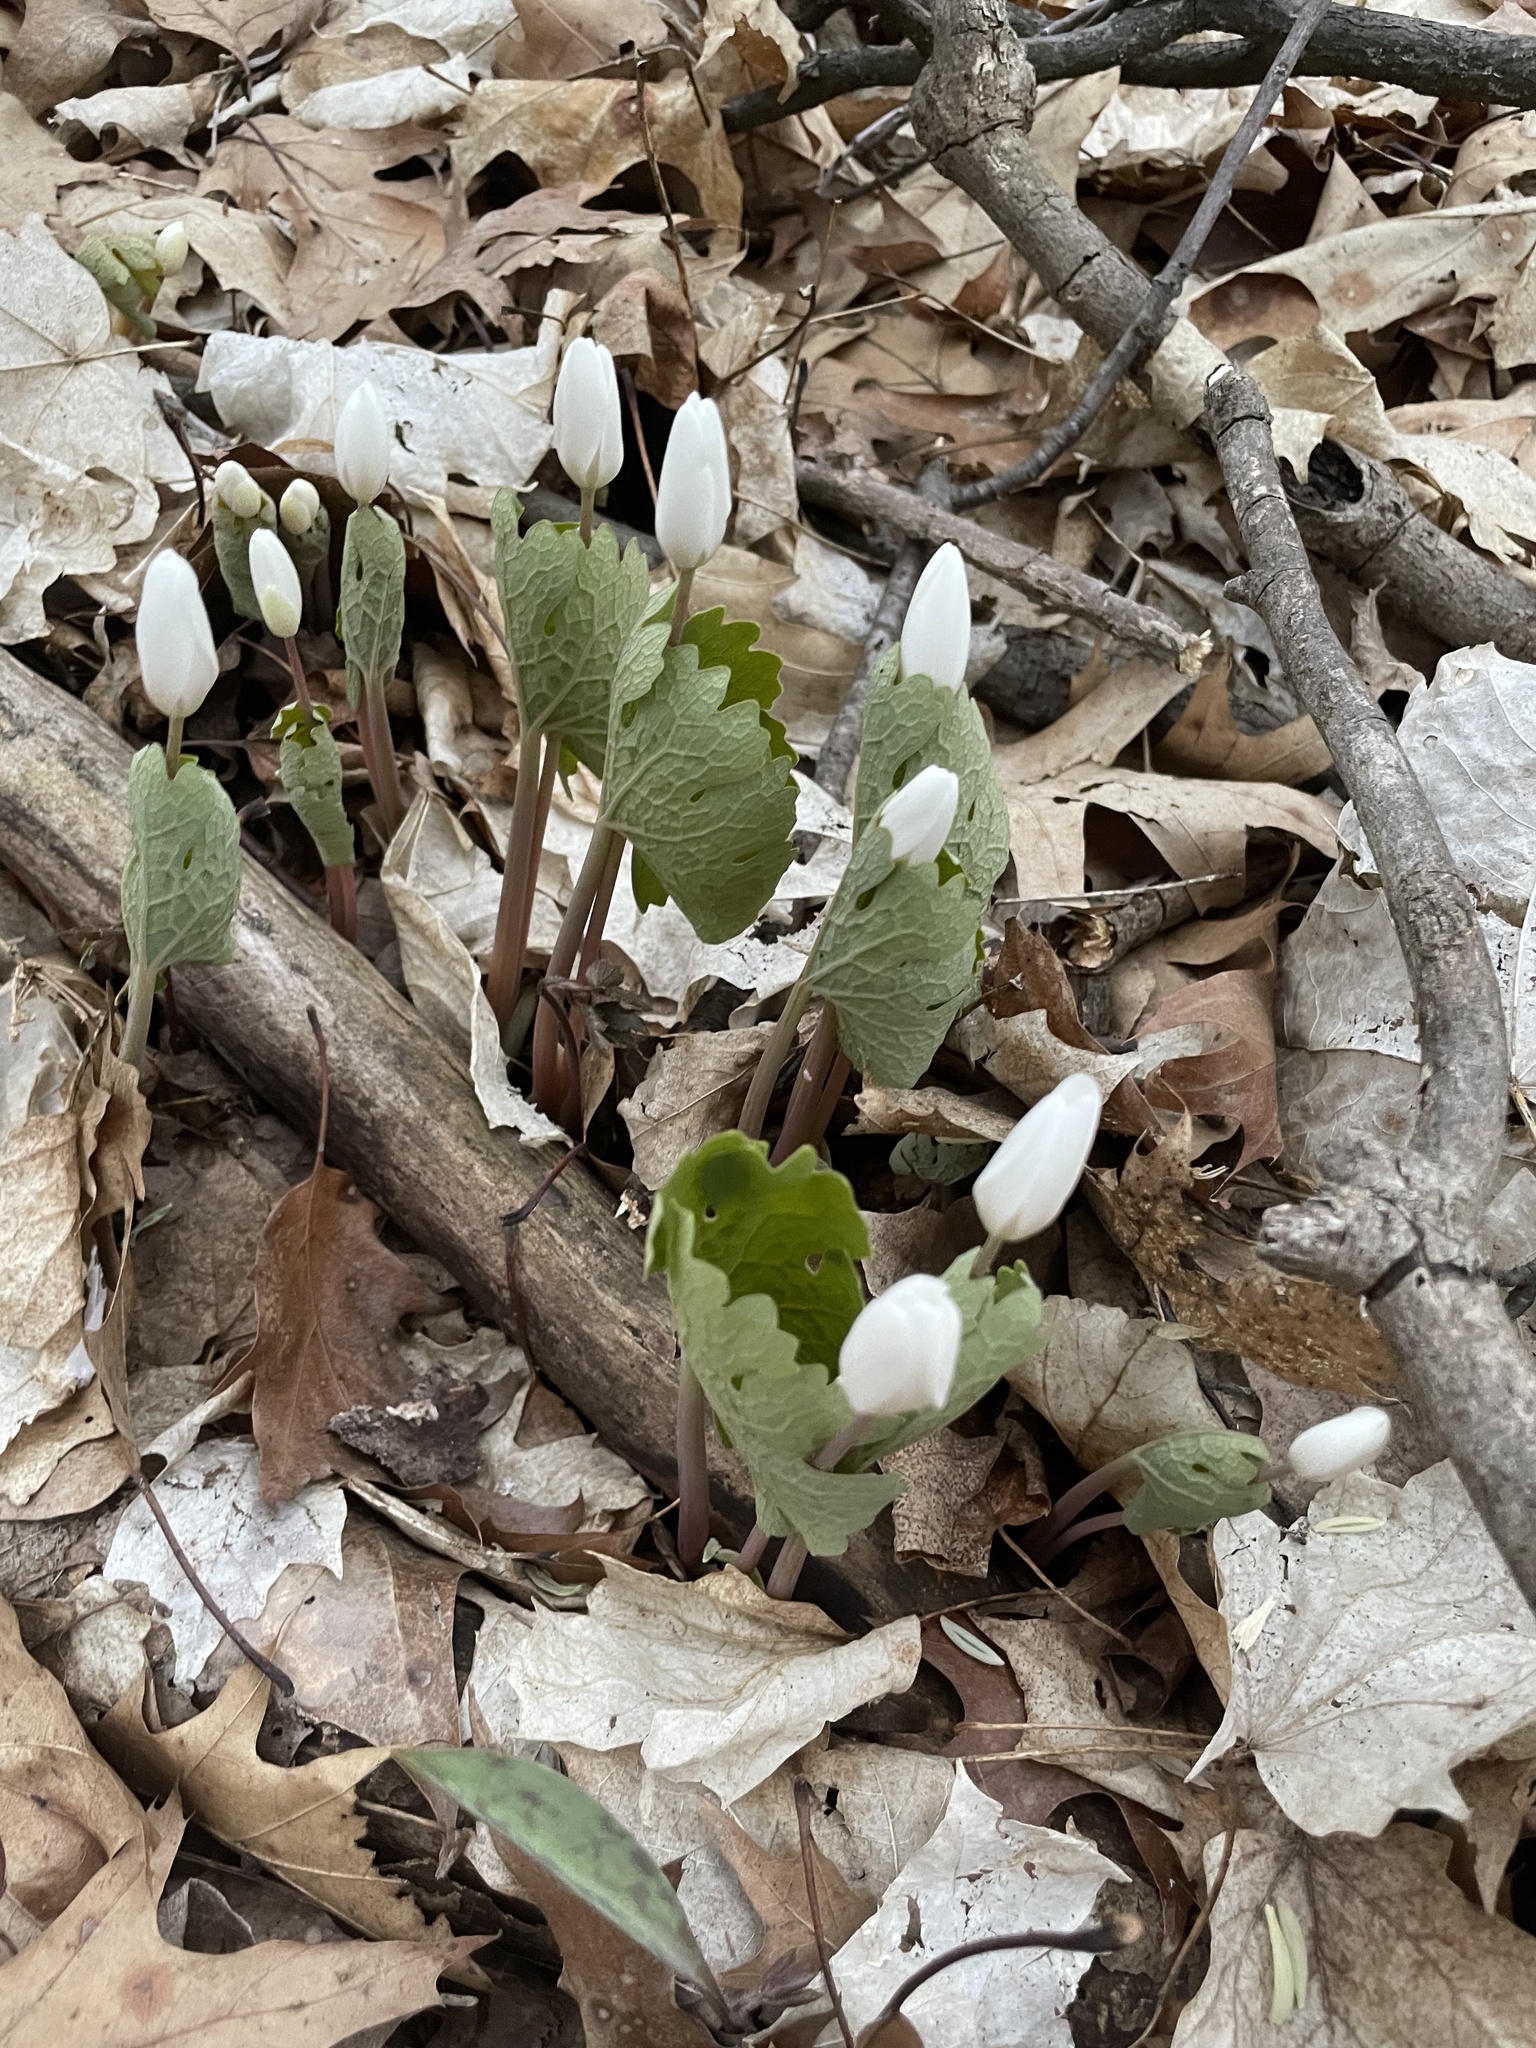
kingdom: Plantae
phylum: Tracheophyta
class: Magnoliopsida
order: Ranunculales
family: Papaveraceae
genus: Sanguinaria
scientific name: Sanguinaria canadensis
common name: Bloodroot
